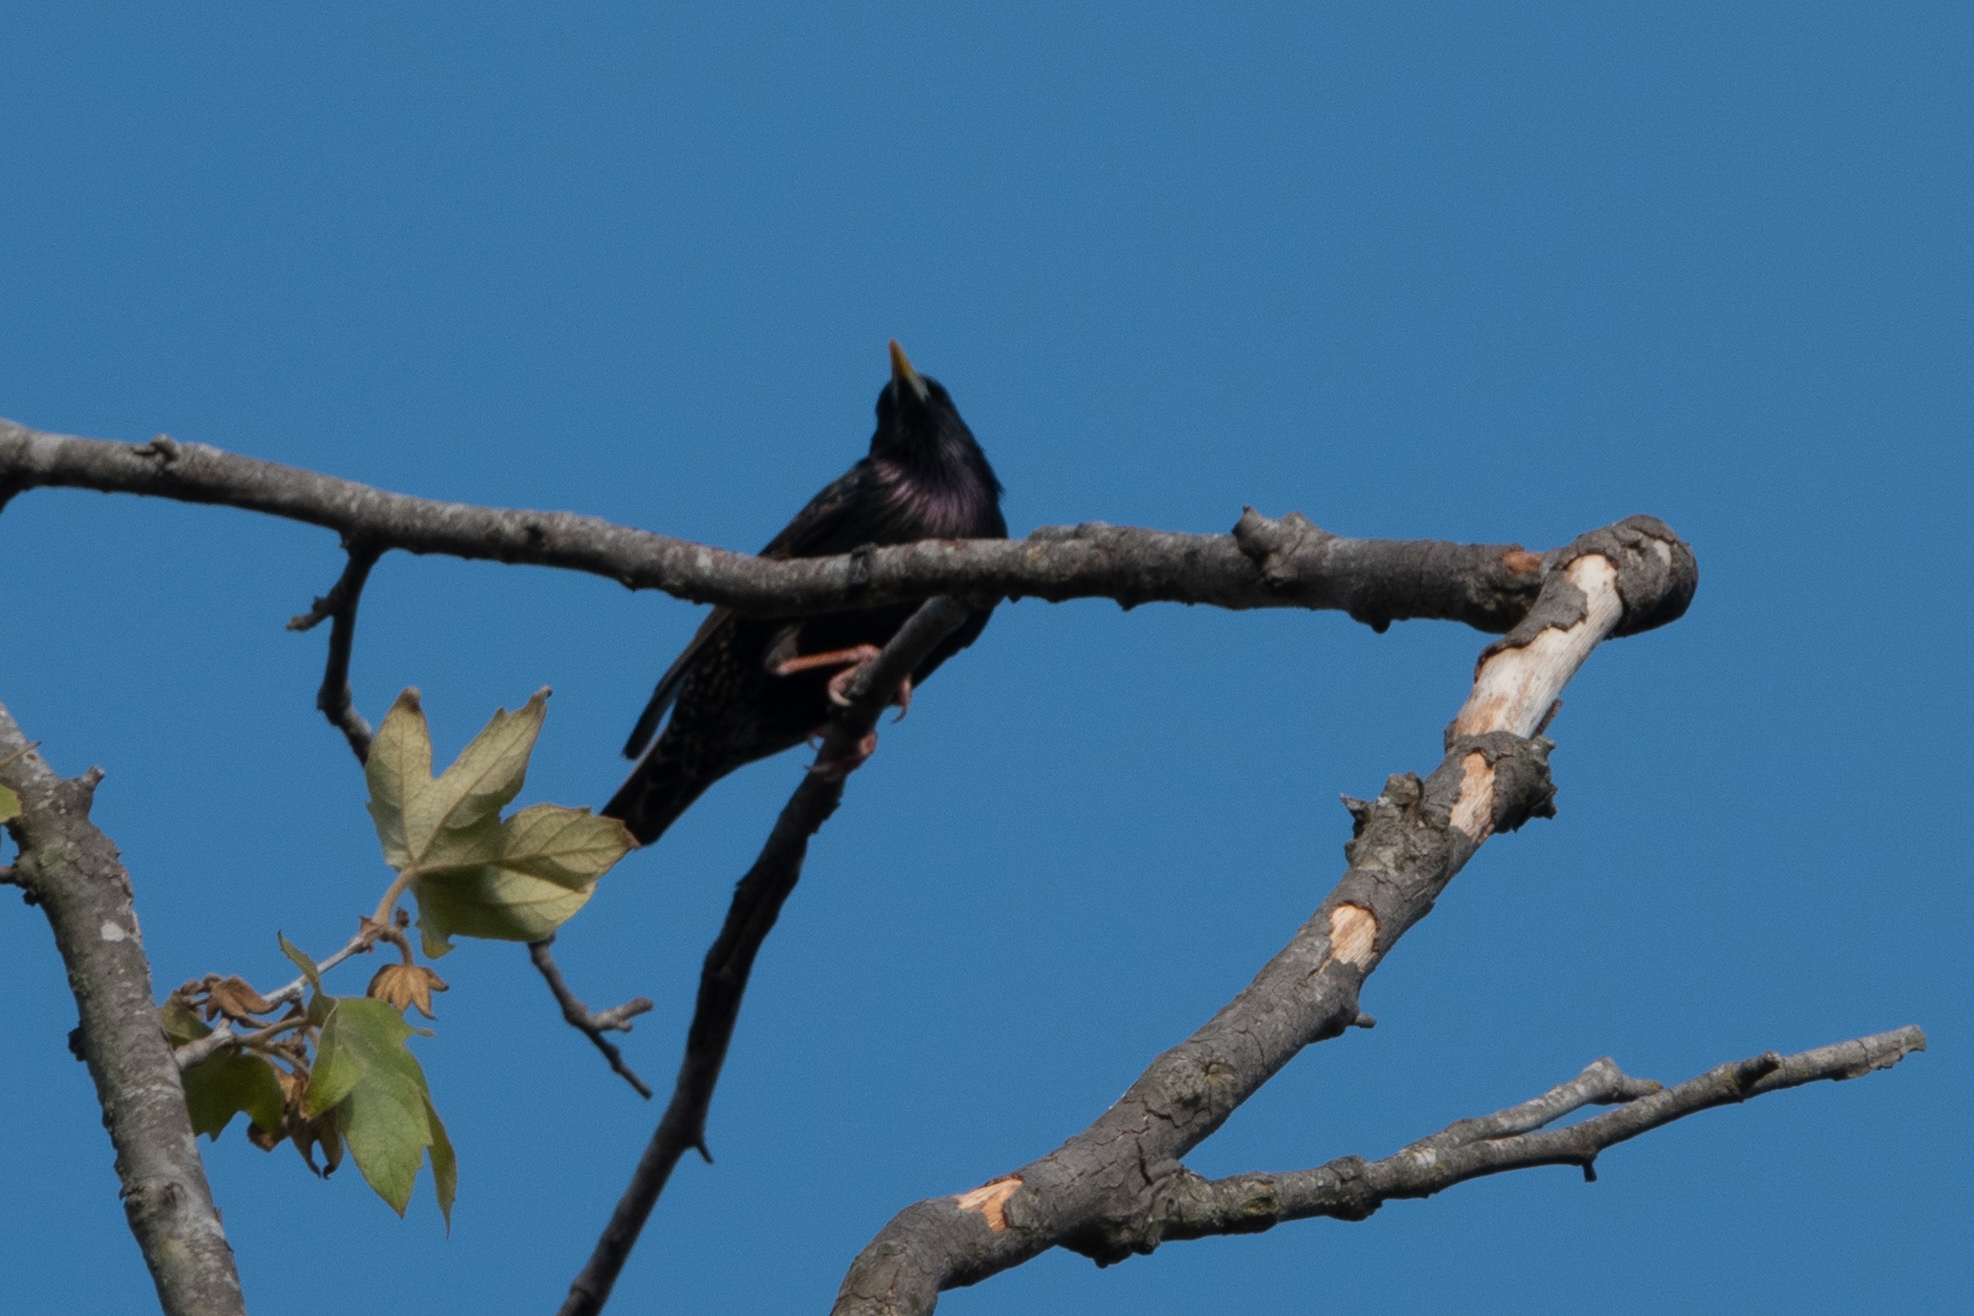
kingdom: Animalia
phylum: Chordata
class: Aves
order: Passeriformes
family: Sturnidae
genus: Sturnus
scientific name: Sturnus vulgaris
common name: Common starling
